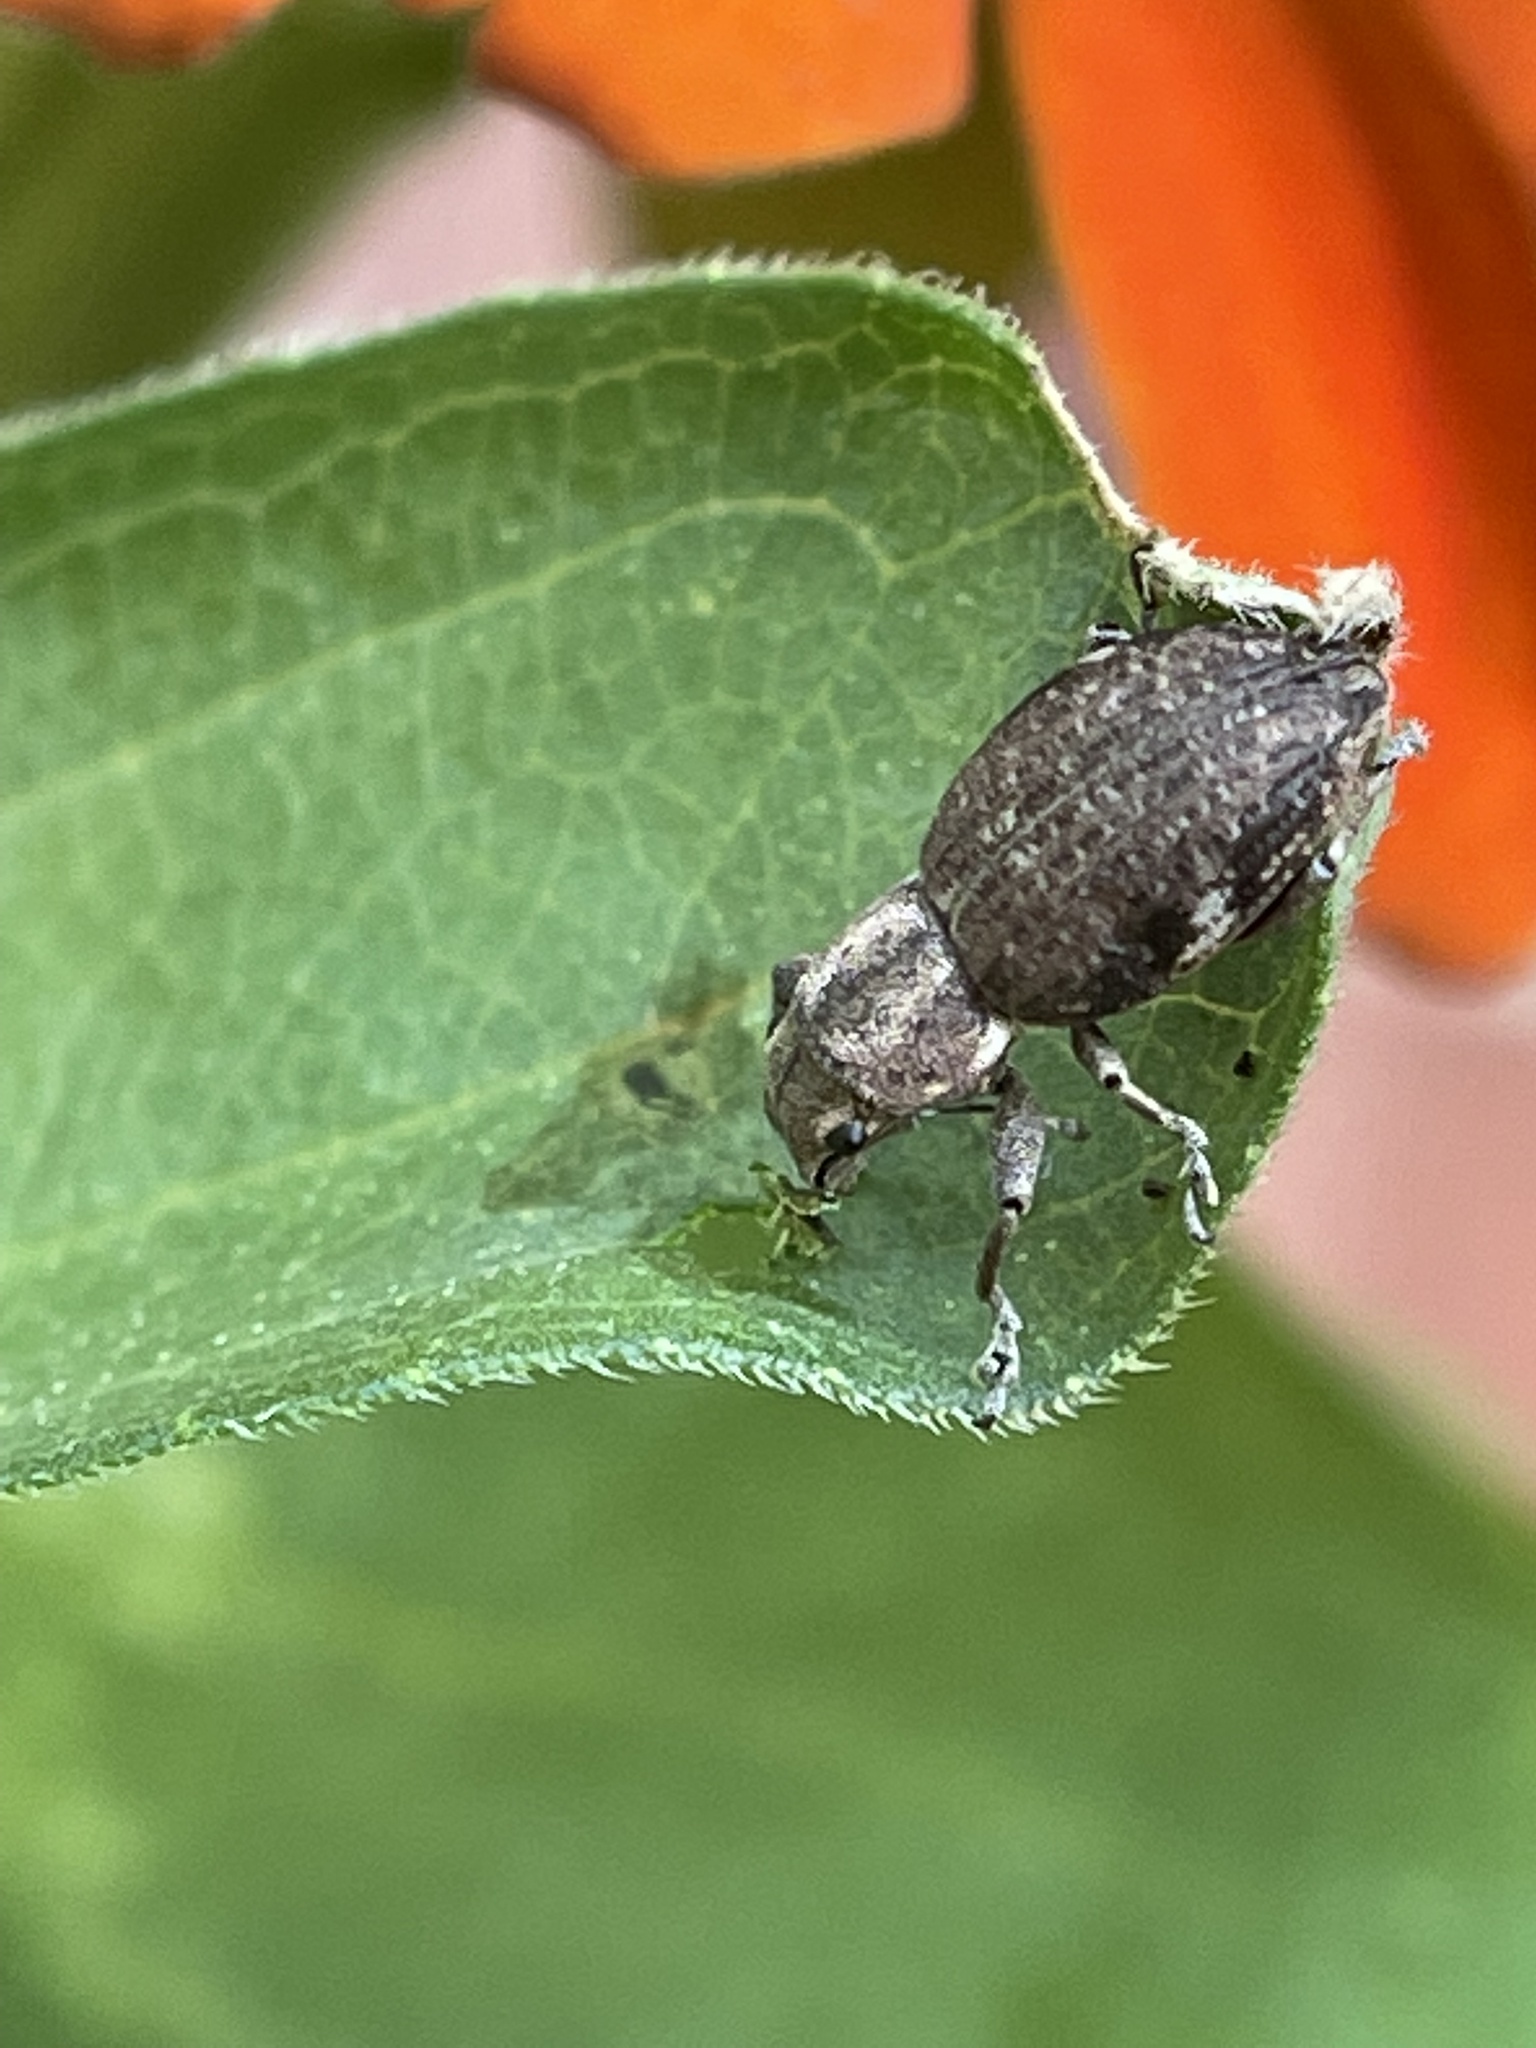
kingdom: Animalia
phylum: Arthropoda
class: Insecta
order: Coleoptera
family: Curculionidae
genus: Naupactus
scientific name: Naupactus cervinus
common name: Fuller rose beetle
